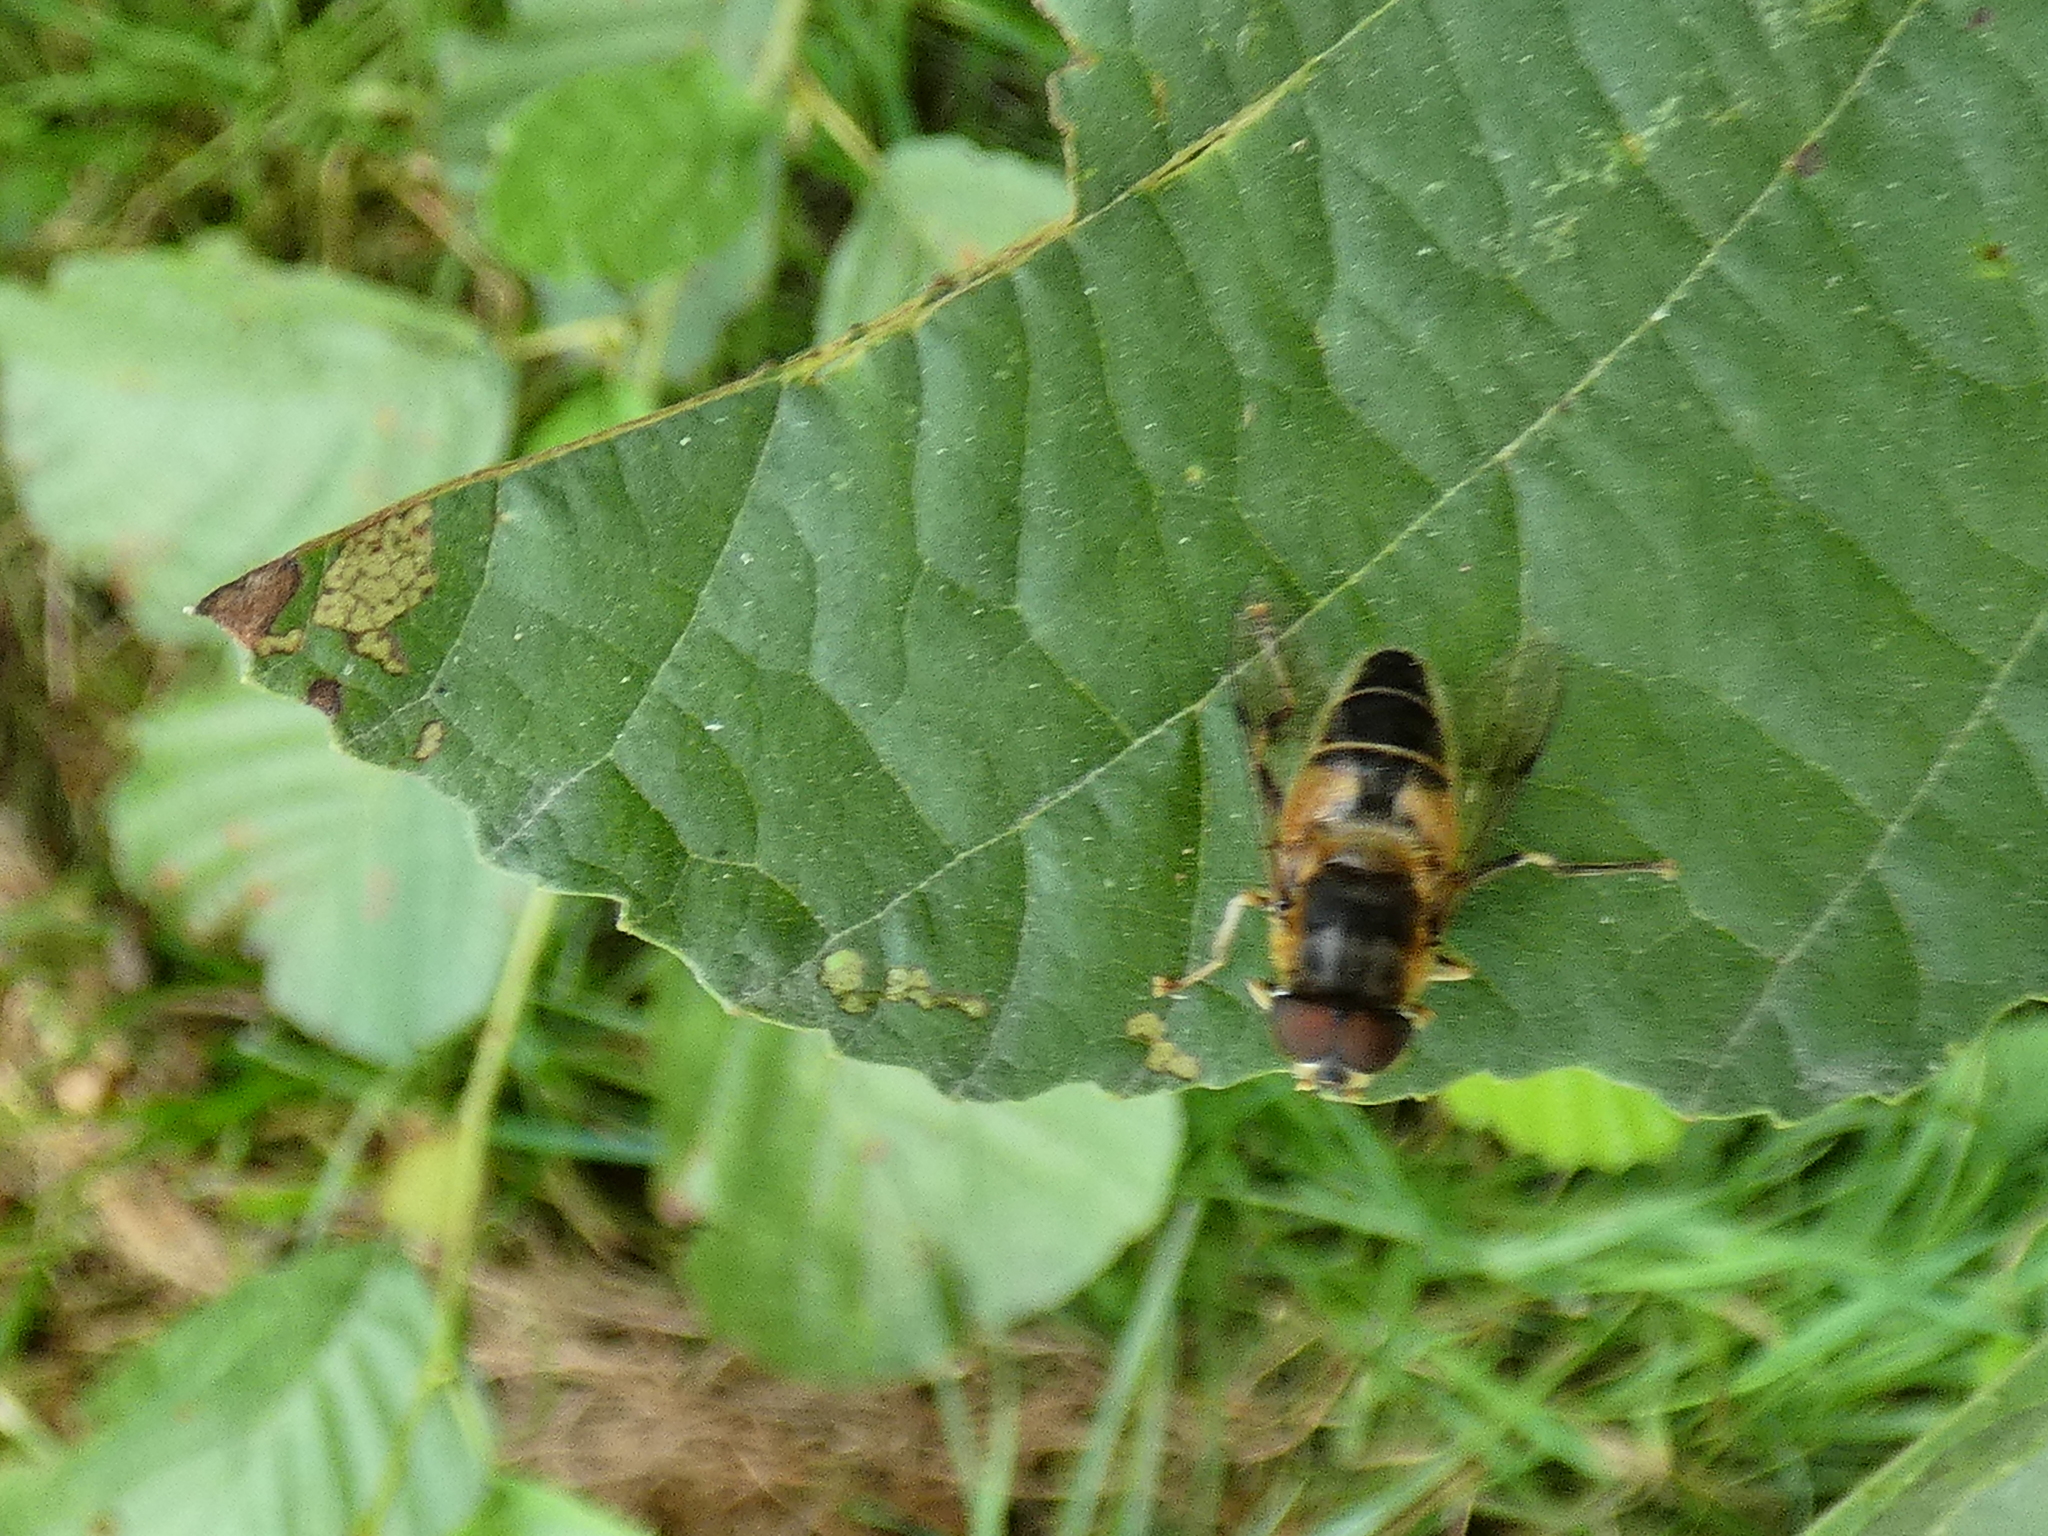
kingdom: Animalia
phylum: Arthropoda
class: Insecta
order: Diptera
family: Syrphidae
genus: Eristalis
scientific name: Eristalis pertinax
